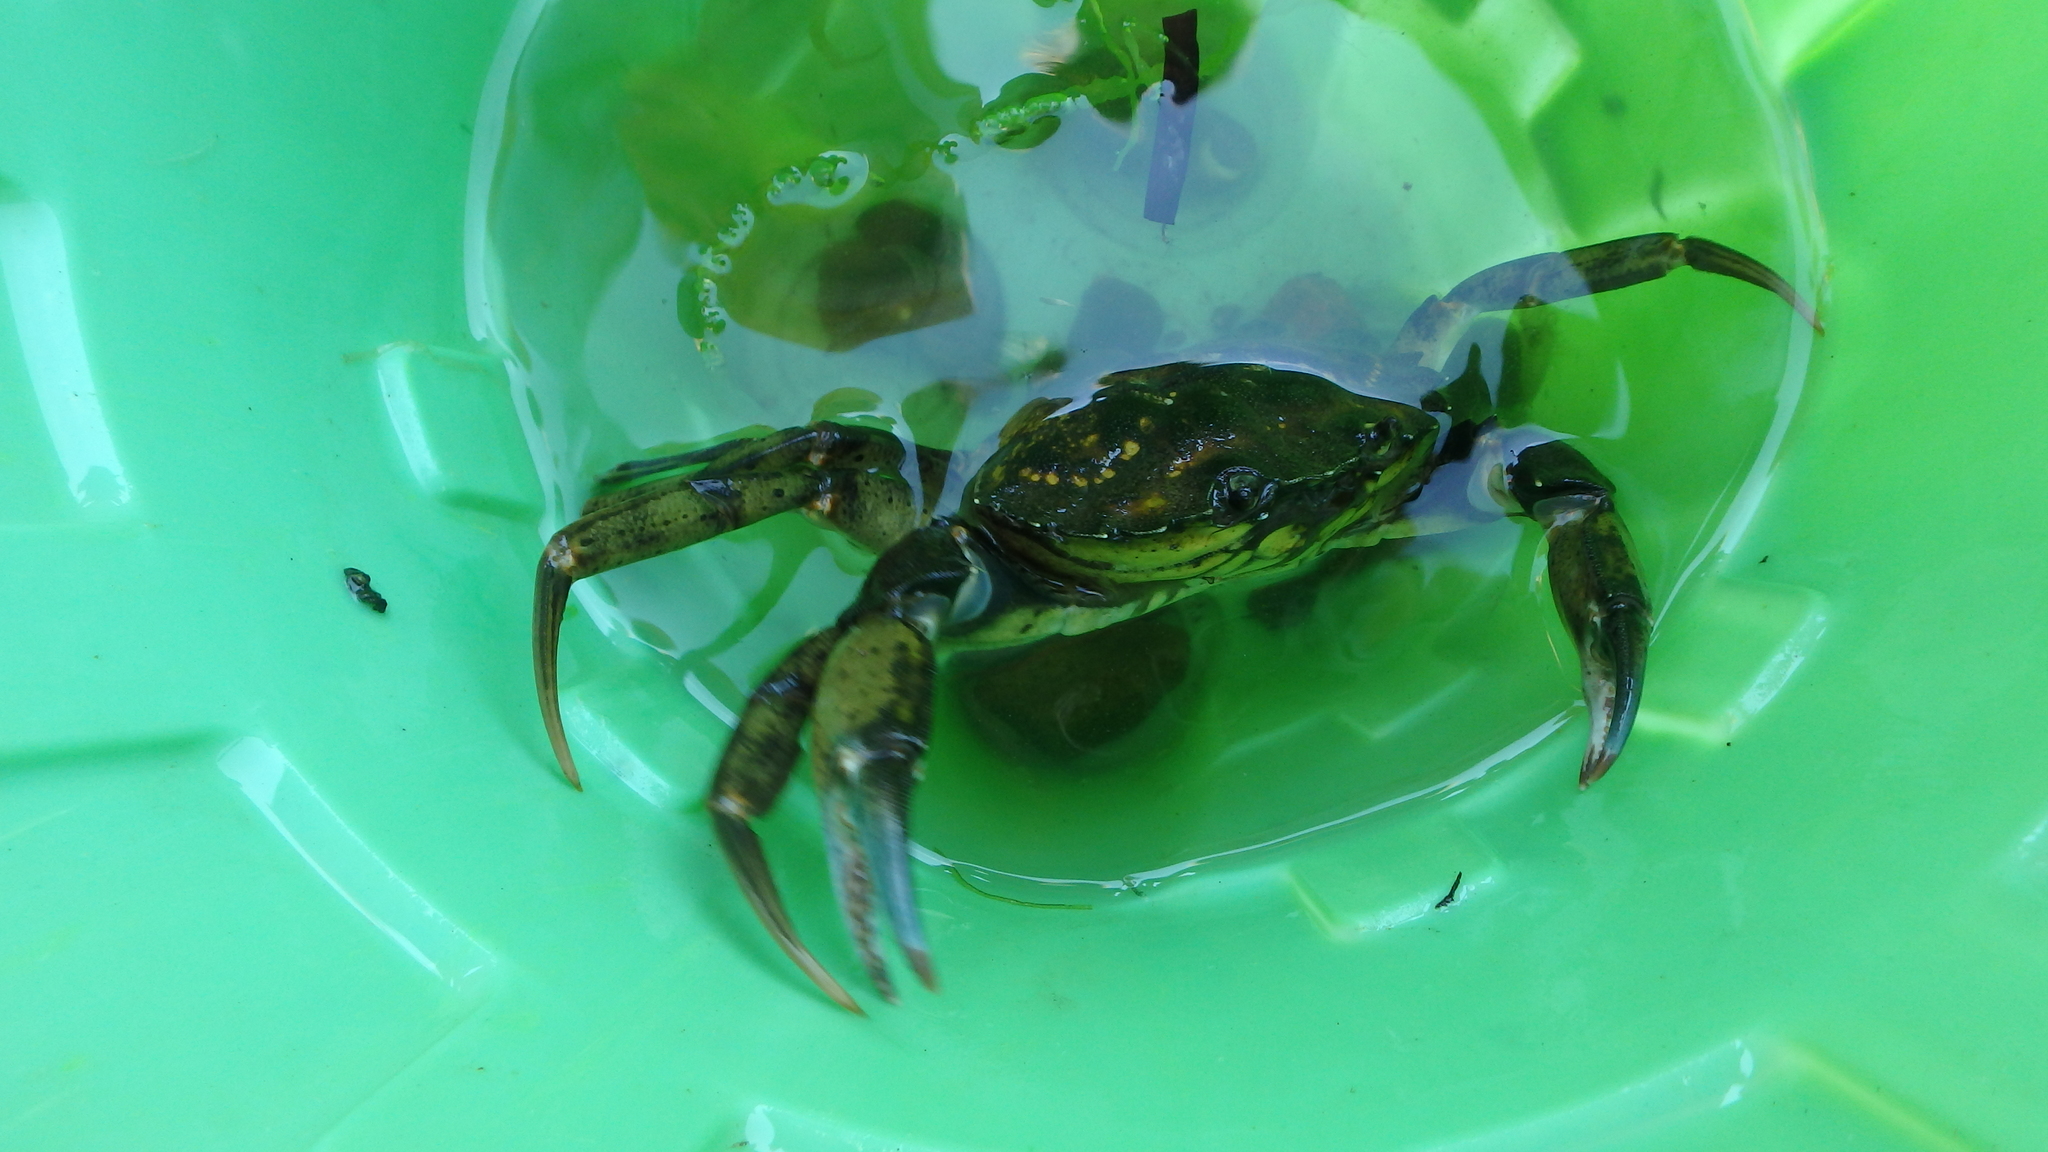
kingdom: Animalia
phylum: Arthropoda
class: Malacostraca
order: Decapoda
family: Carcinidae
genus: Carcinus
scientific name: Carcinus maenas
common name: European green crab
